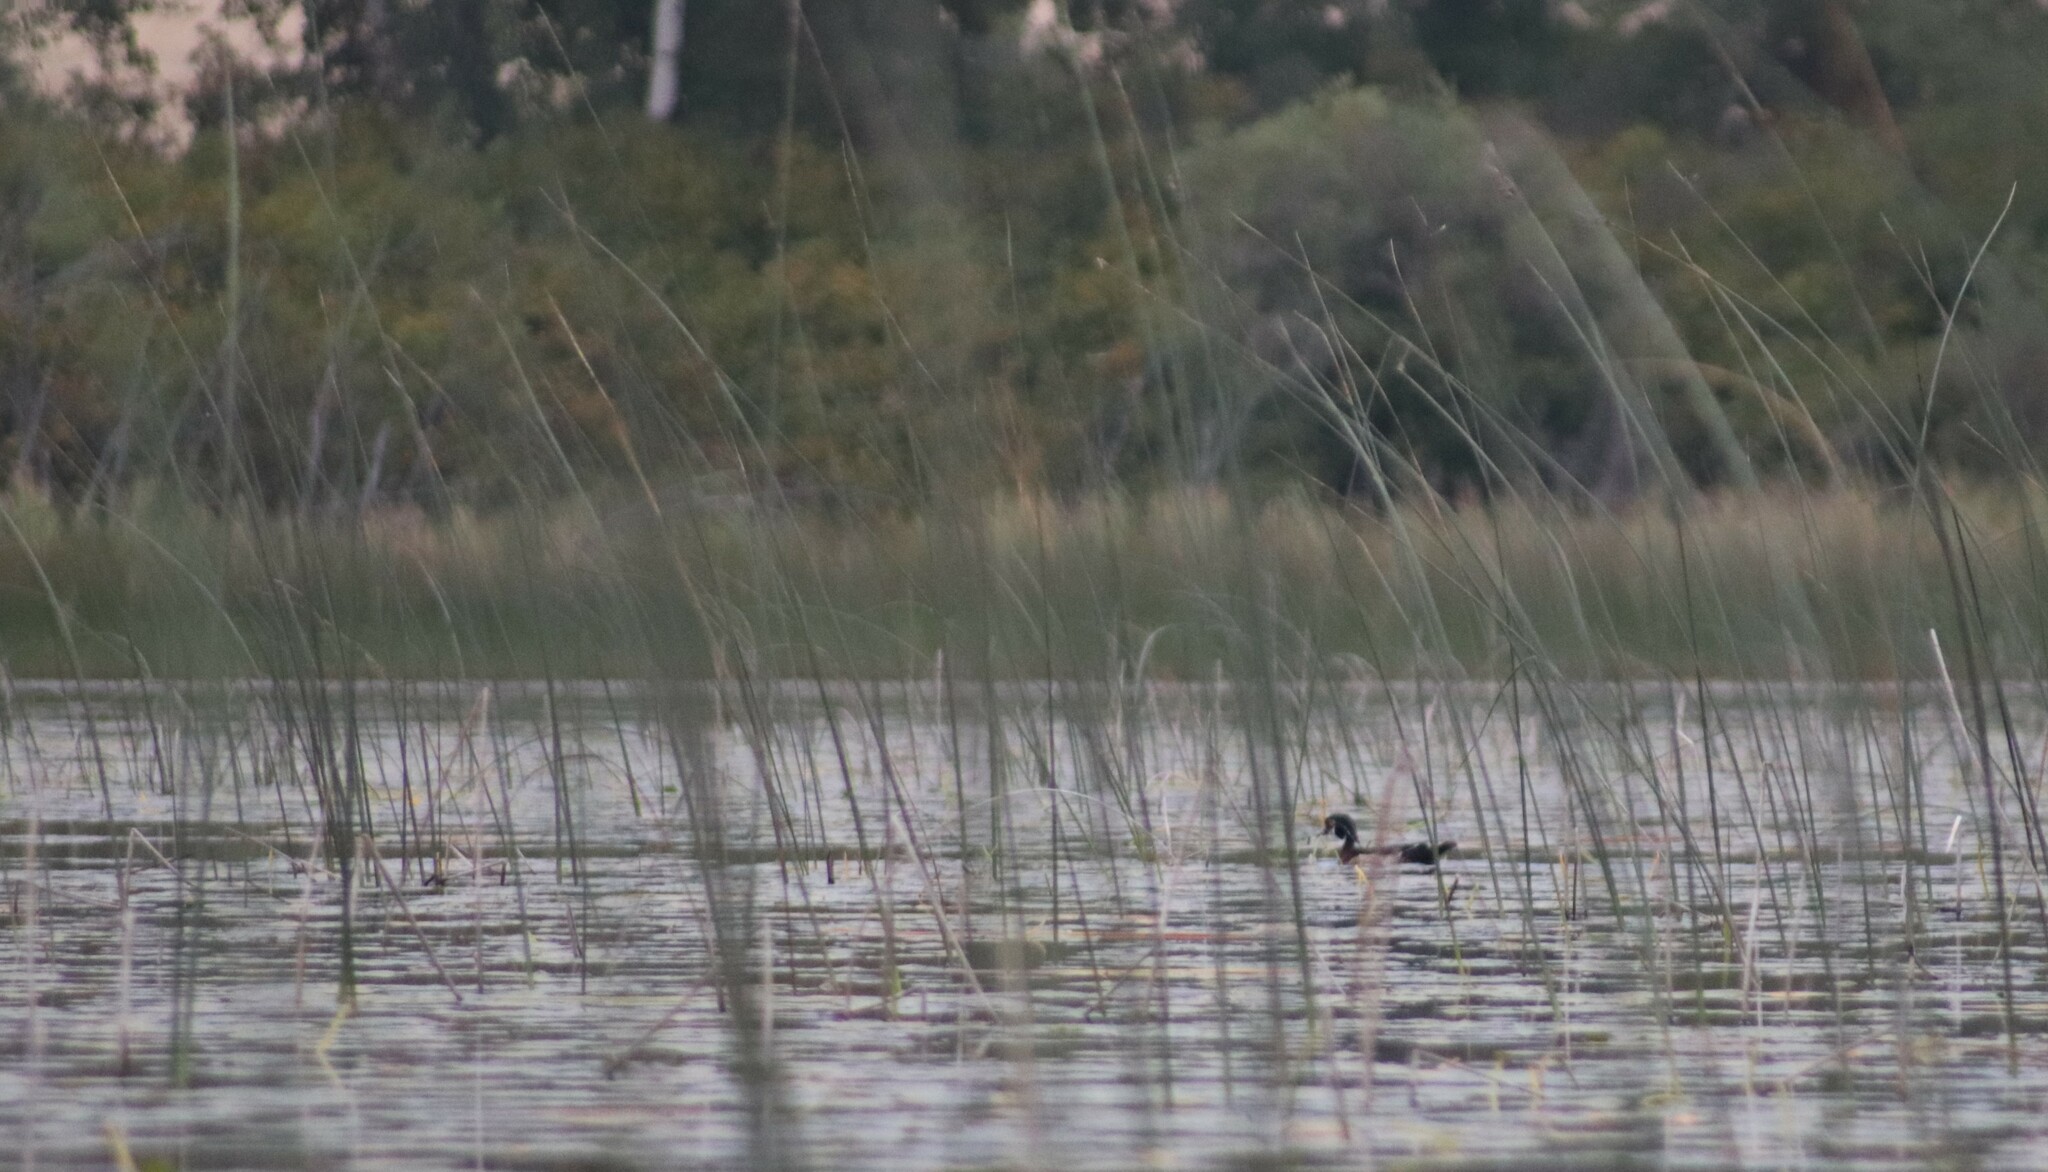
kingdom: Animalia
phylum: Chordata
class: Aves
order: Anseriformes
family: Anatidae
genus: Aix
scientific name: Aix sponsa
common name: Wood duck
